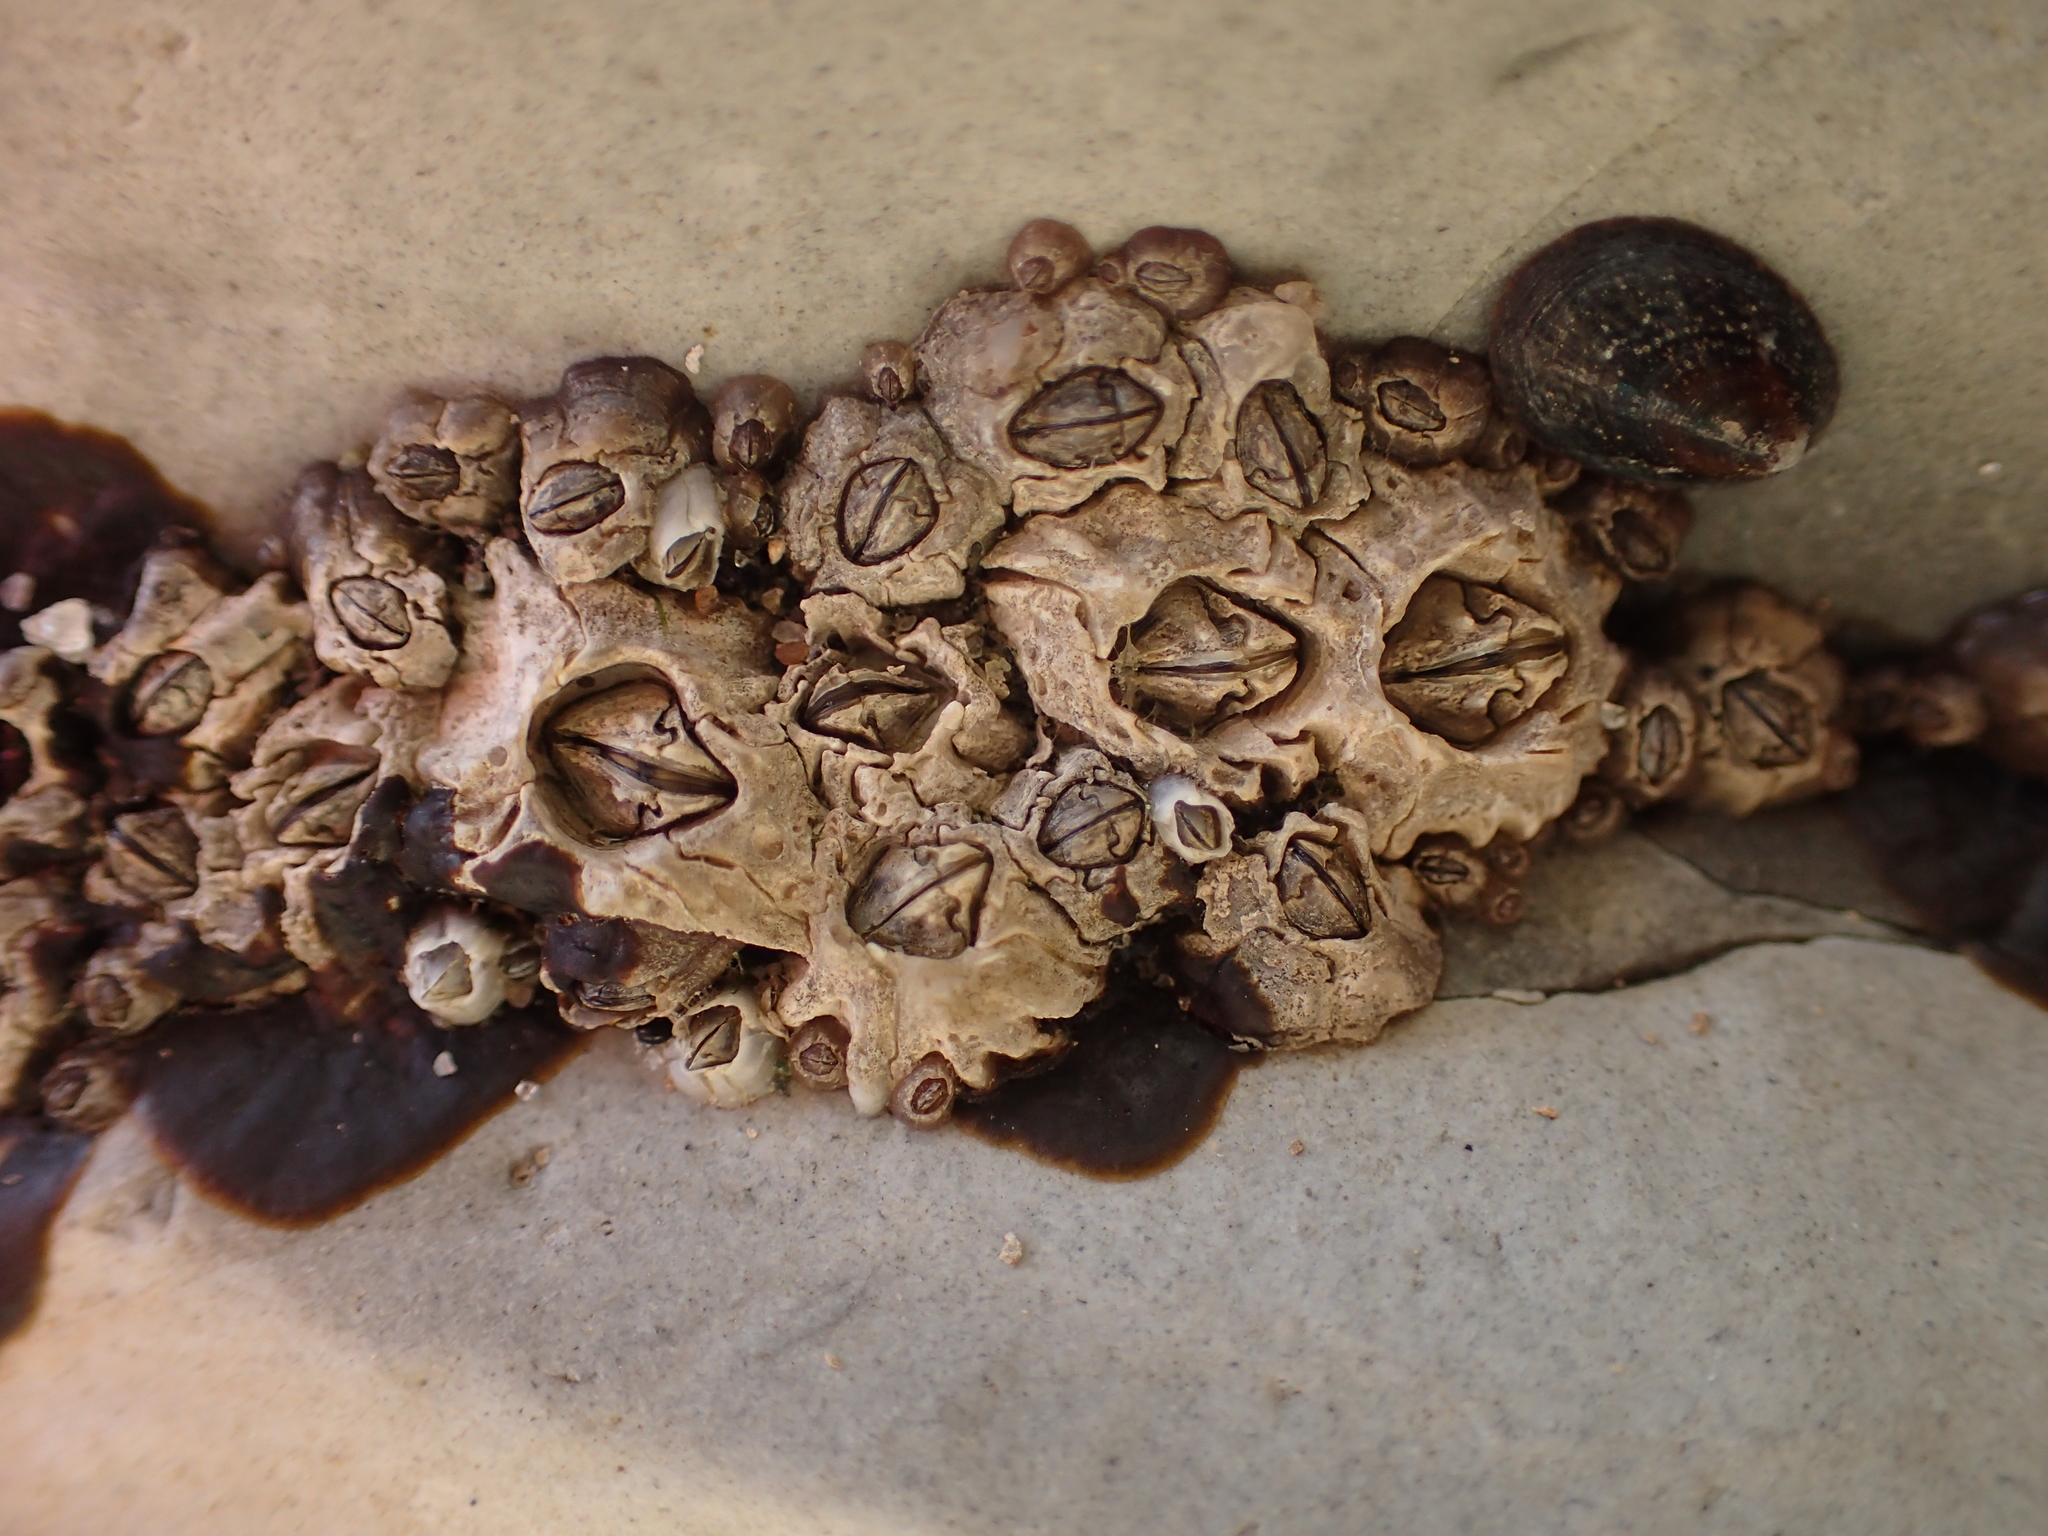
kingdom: Animalia
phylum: Arthropoda
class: Maxillopoda
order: Sessilia
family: Balanidae
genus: Balanus
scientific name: Balanus glandula
